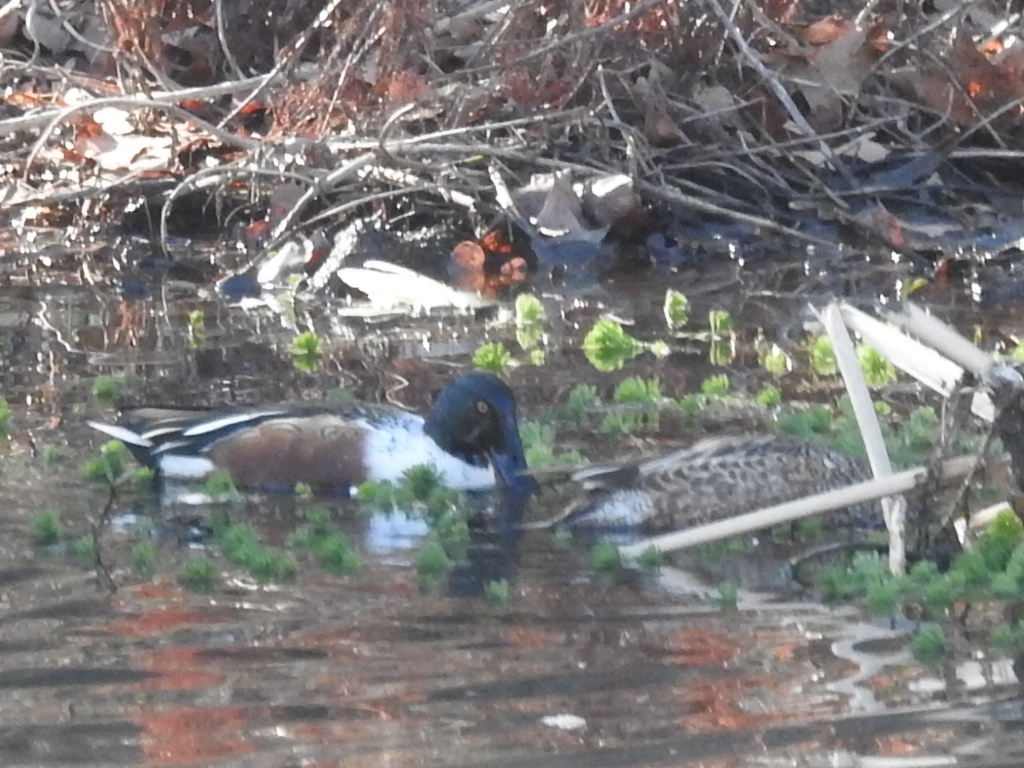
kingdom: Animalia
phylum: Chordata
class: Aves
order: Anseriformes
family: Anatidae
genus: Spatula
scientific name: Spatula clypeata
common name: Northern shoveler
